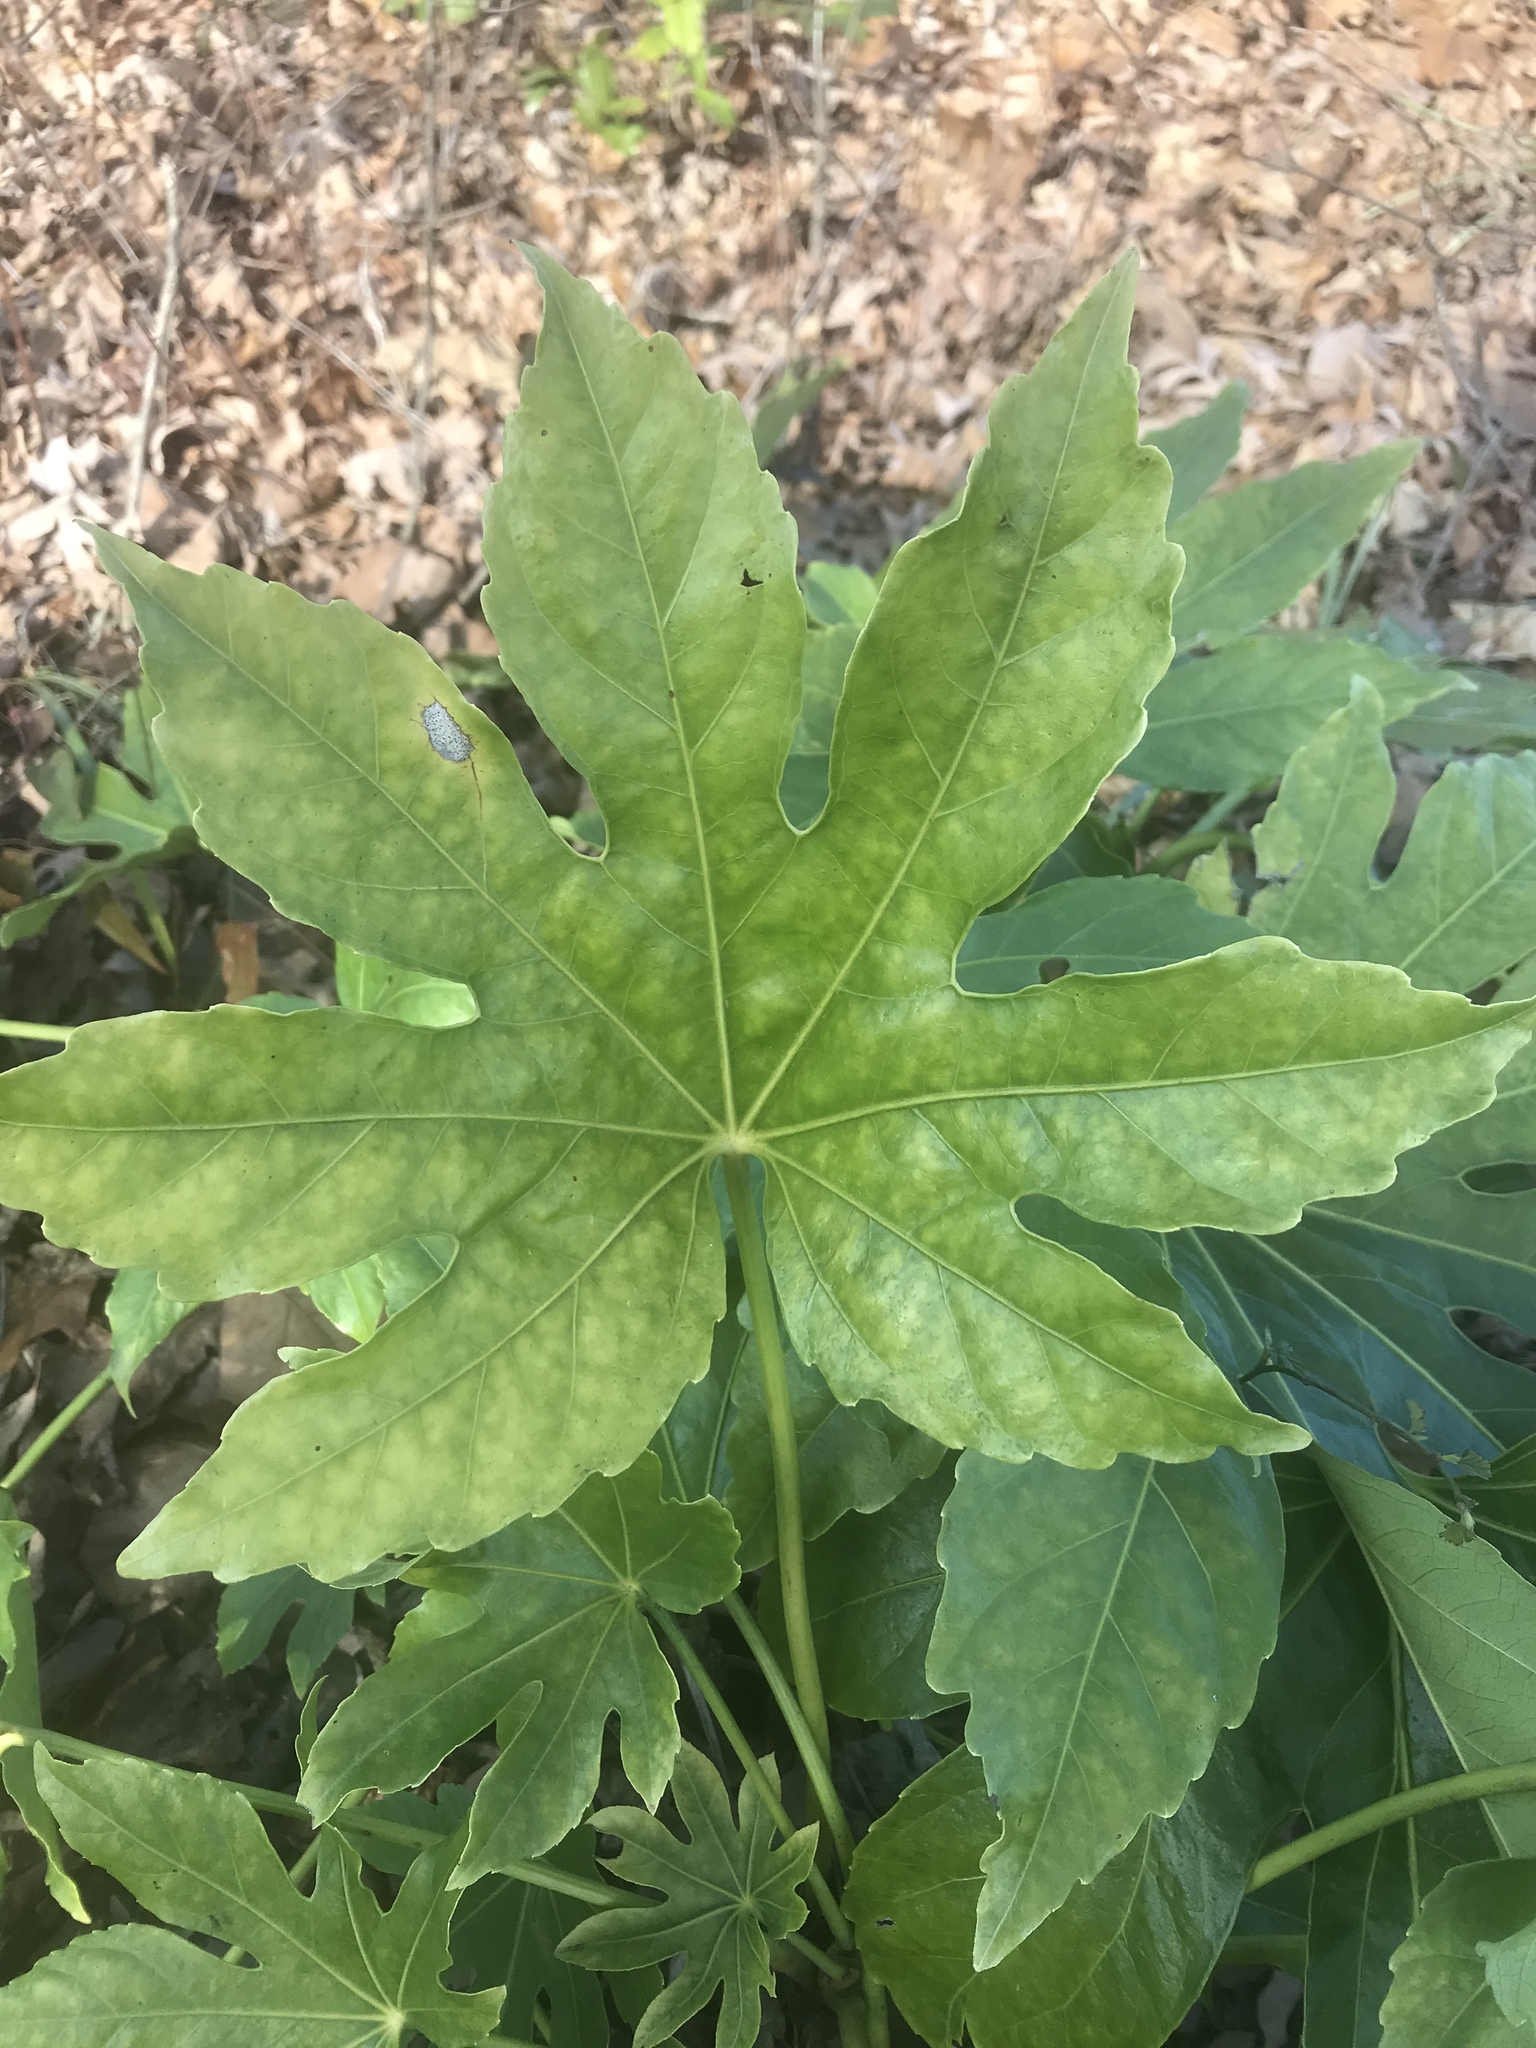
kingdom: Plantae
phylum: Tracheophyta
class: Magnoliopsida
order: Apiales
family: Araliaceae
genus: Fatsia
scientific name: Fatsia japonica
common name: Fatsia
